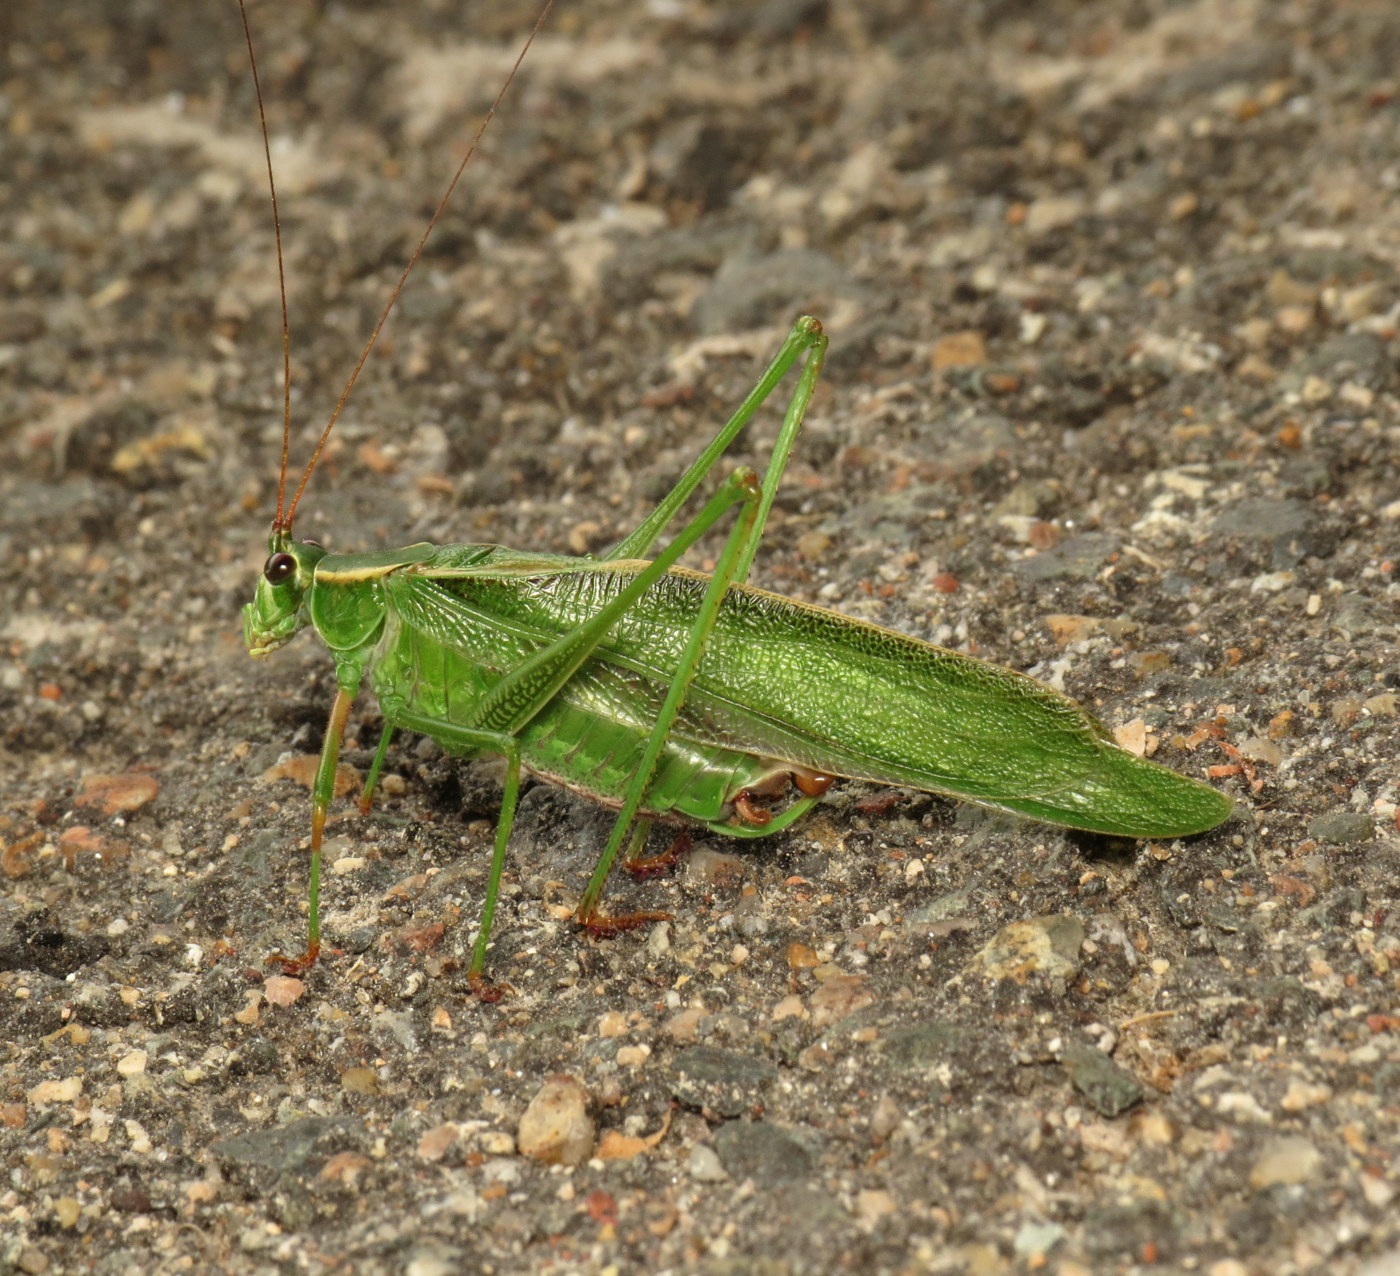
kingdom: Animalia
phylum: Arthropoda
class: Insecta
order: Orthoptera
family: Tettigoniidae
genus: Scudderia
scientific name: Scudderia fasciata
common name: Treetop bush katydid
